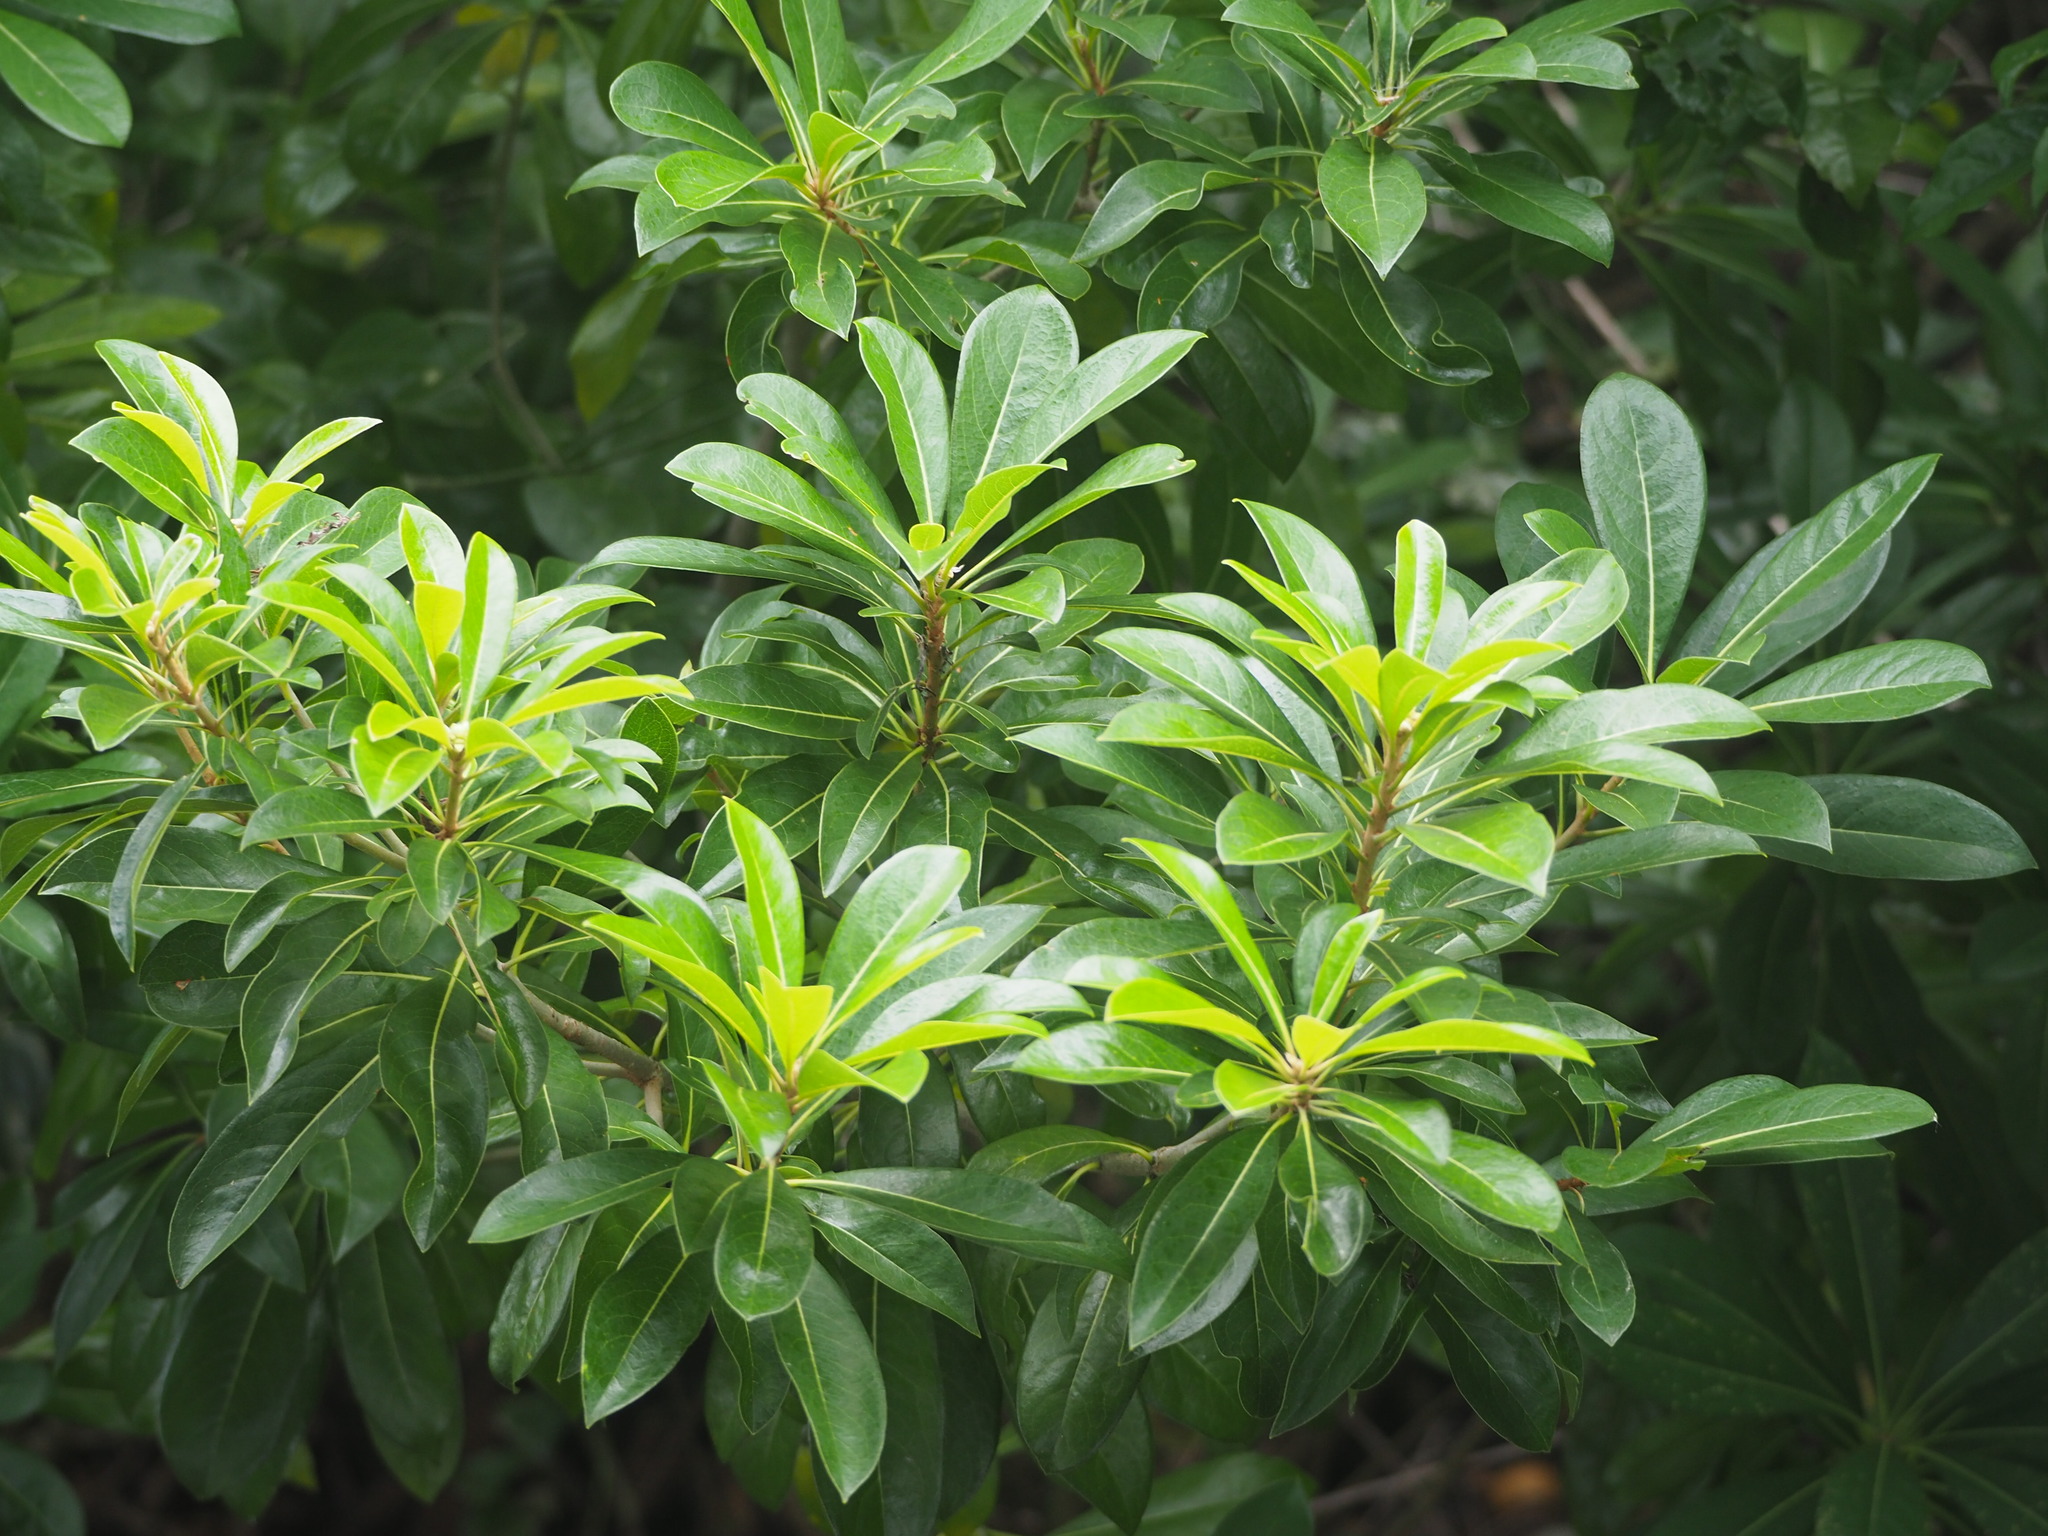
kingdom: Plantae
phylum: Tracheophyta
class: Magnoliopsida
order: Apiales
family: Pittosporaceae
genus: Pittosporum
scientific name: Pittosporum pentandrum
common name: Taiwanese cheesewood
